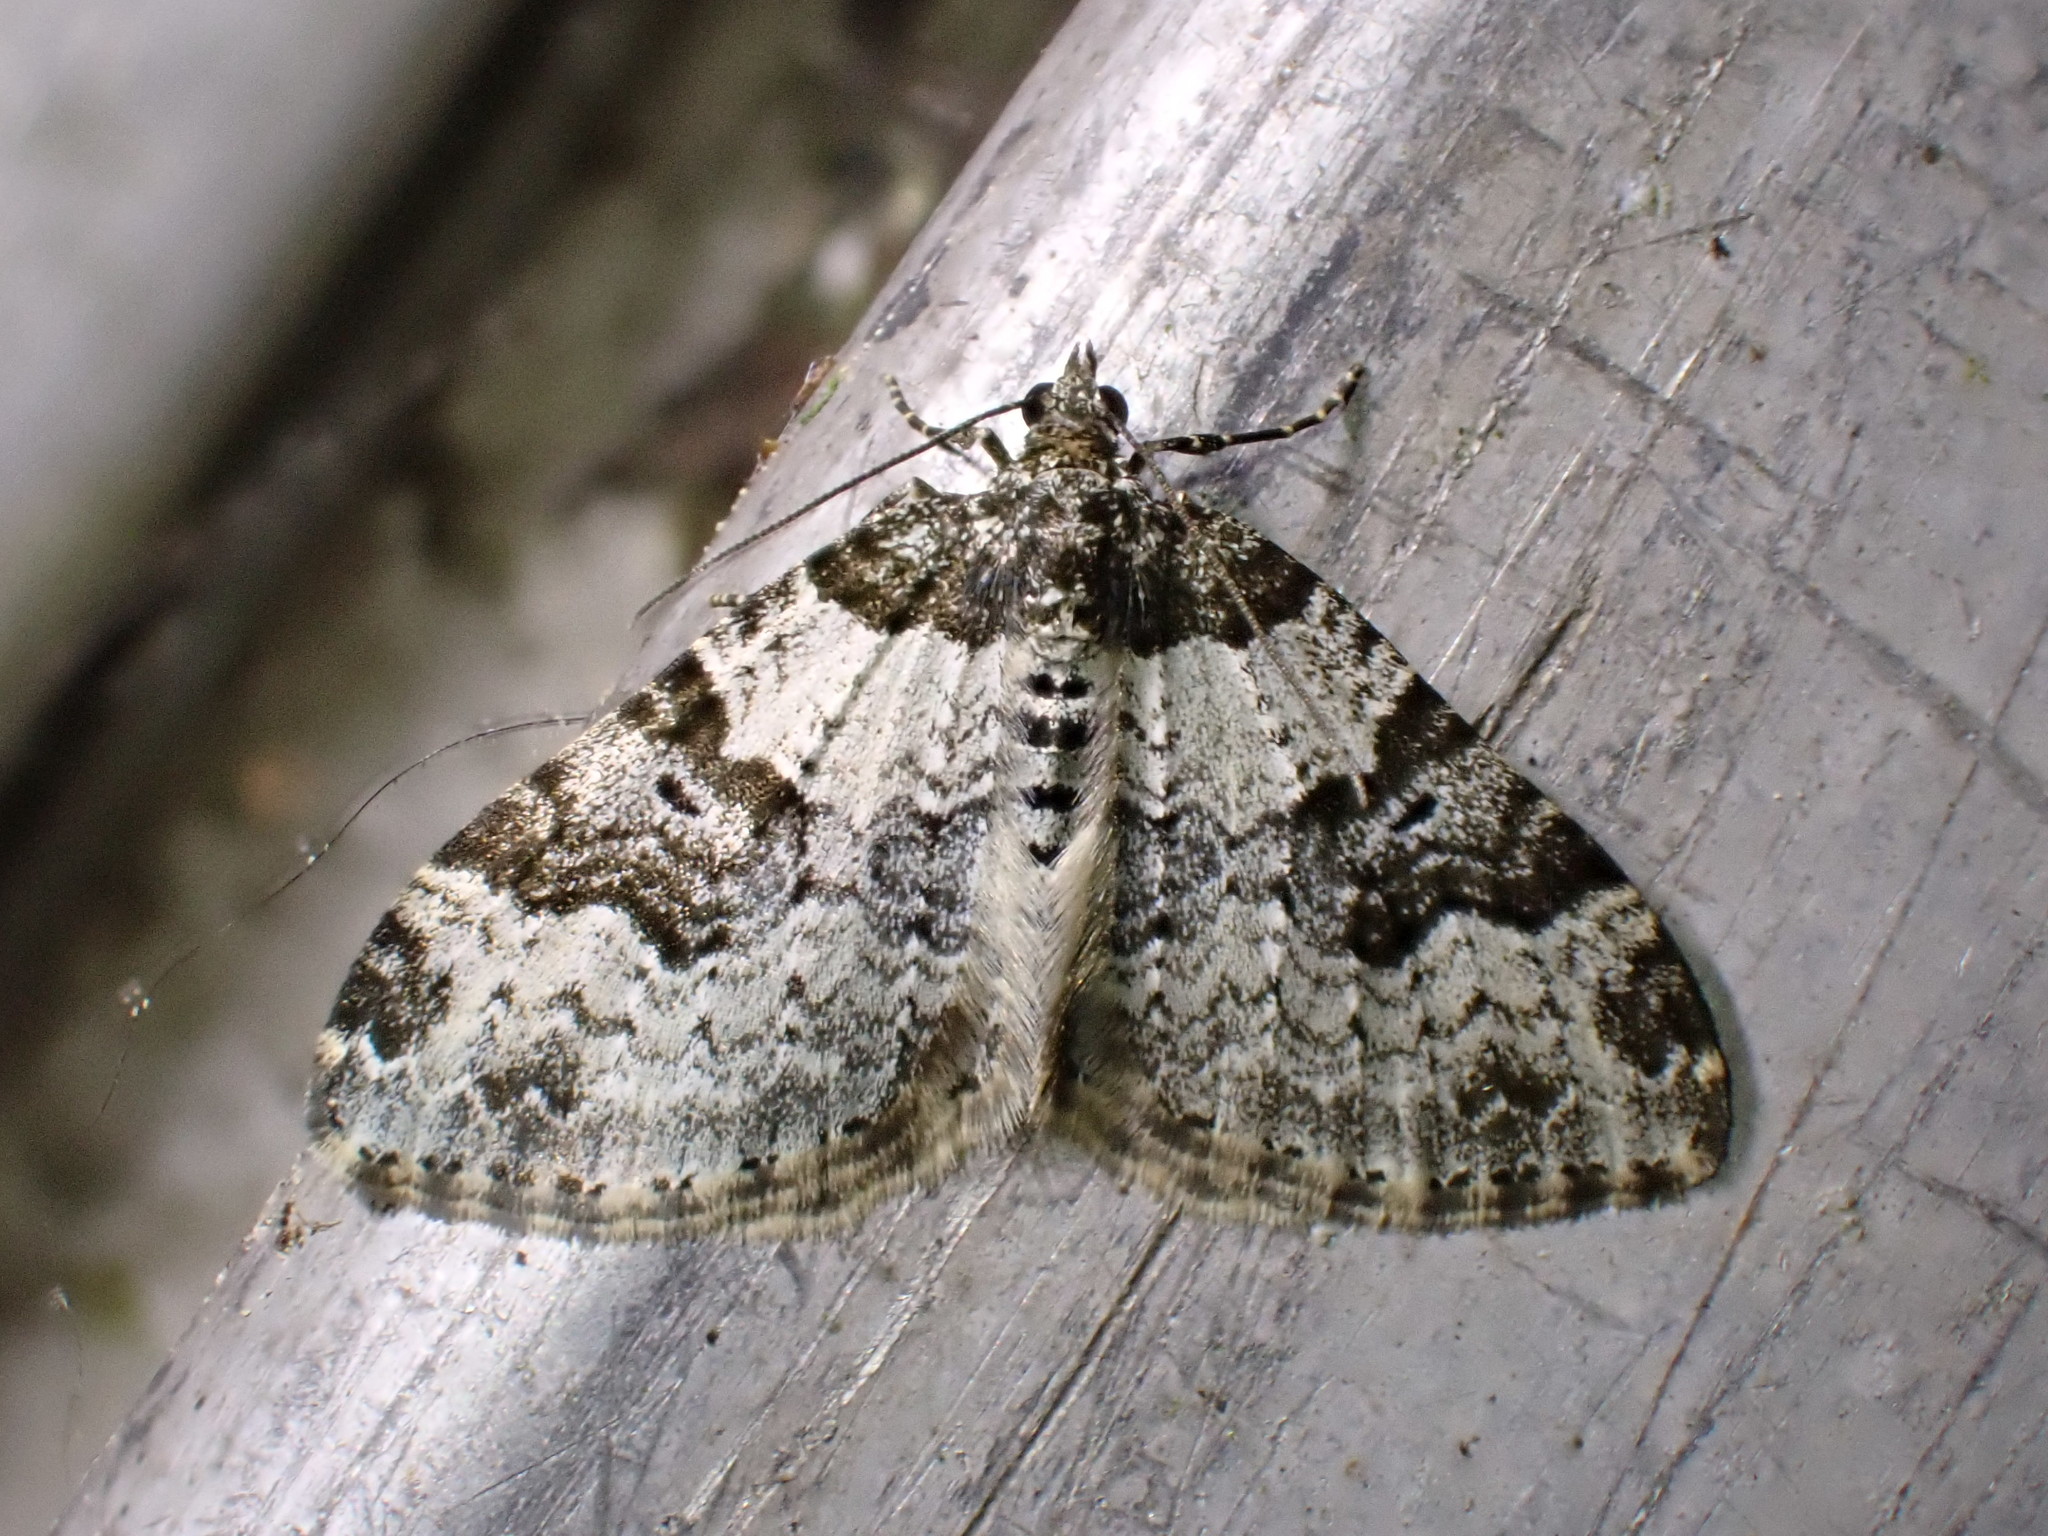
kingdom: Animalia
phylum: Arthropoda
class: Insecta
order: Lepidoptera
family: Geometridae
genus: Xanthorhoe
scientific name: Xanthorhoe fluctuata
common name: Garden carpet
